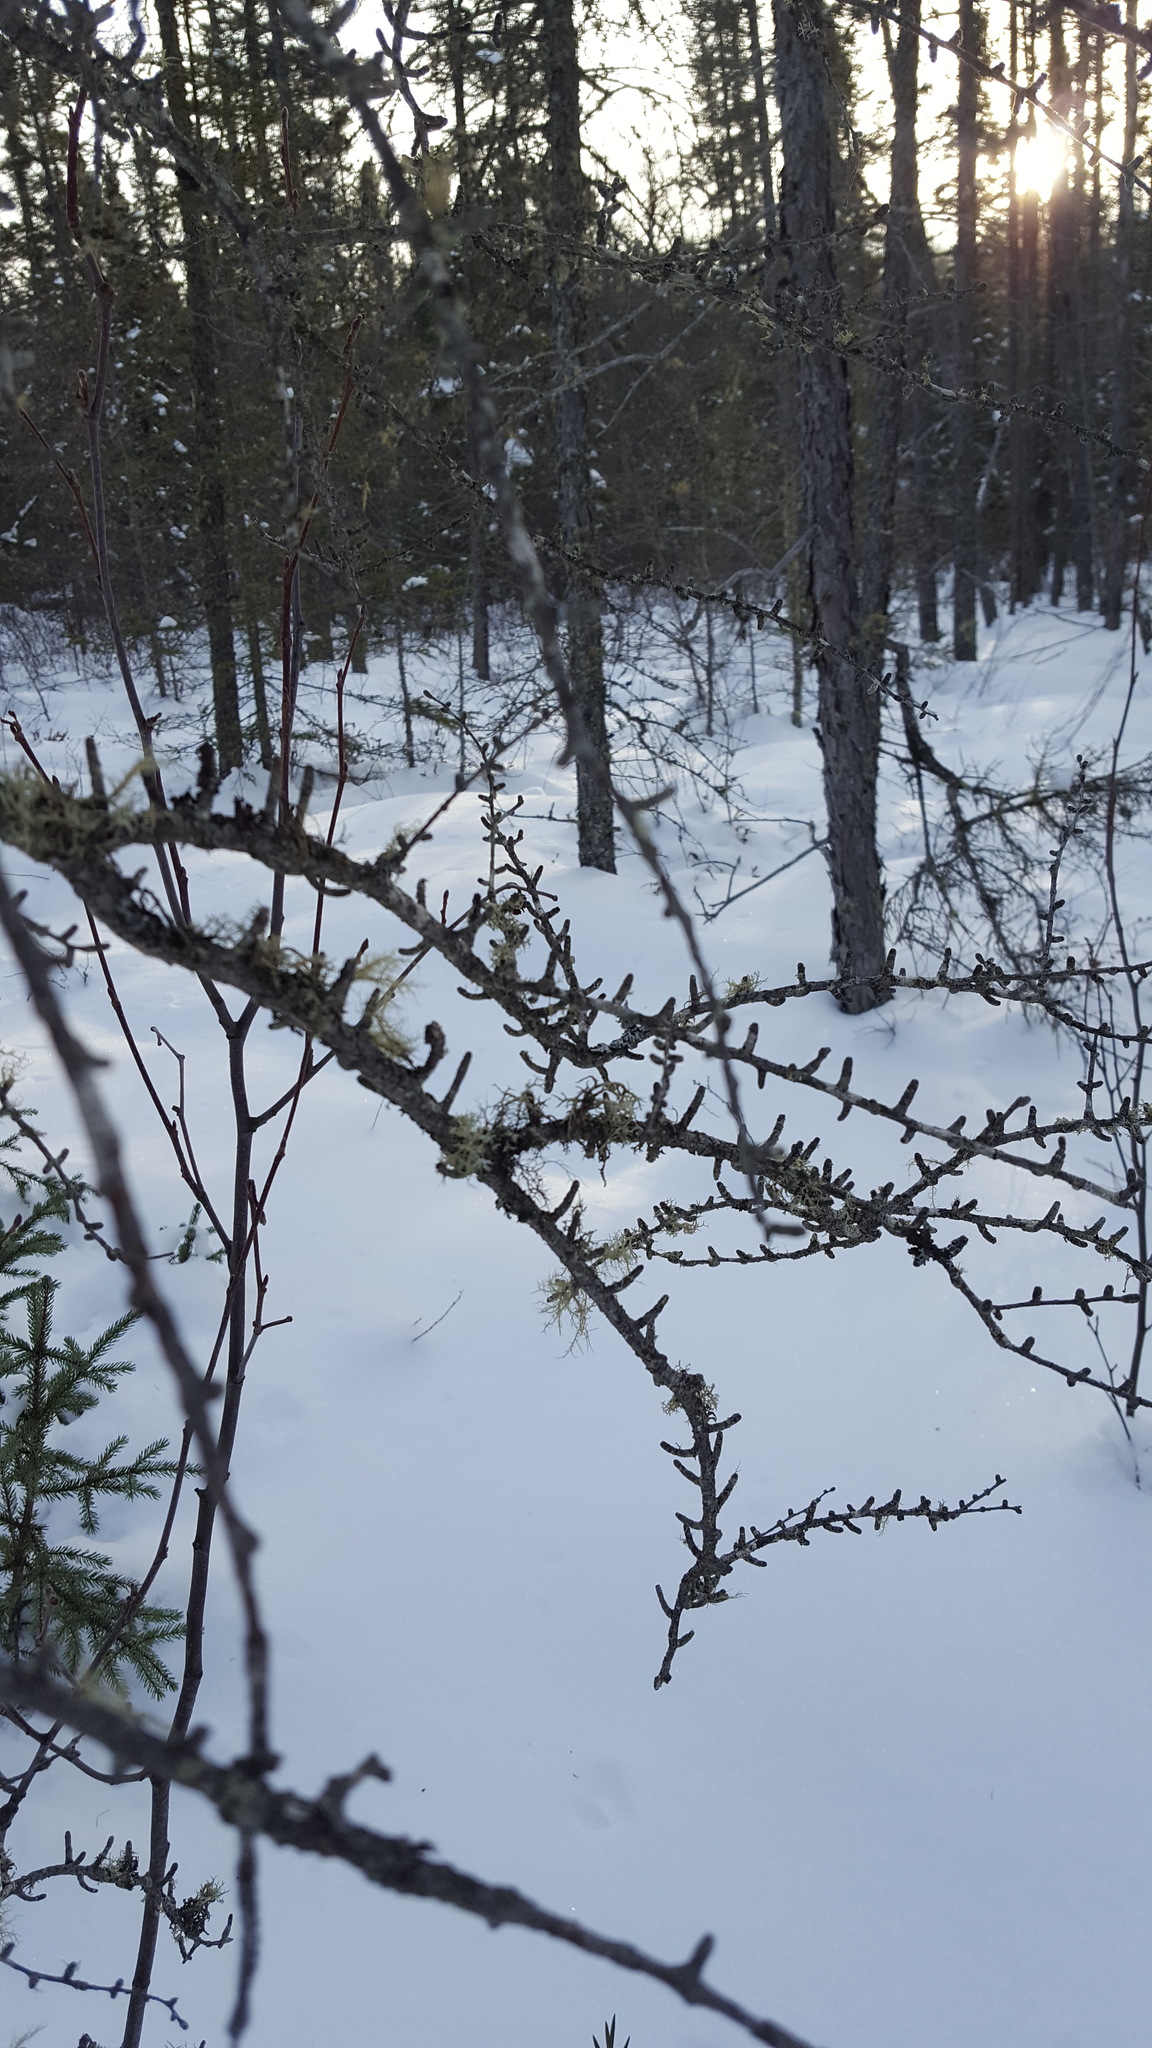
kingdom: Plantae
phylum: Tracheophyta
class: Pinopsida
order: Pinales
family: Pinaceae
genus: Larix
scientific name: Larix laricina
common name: American larch
